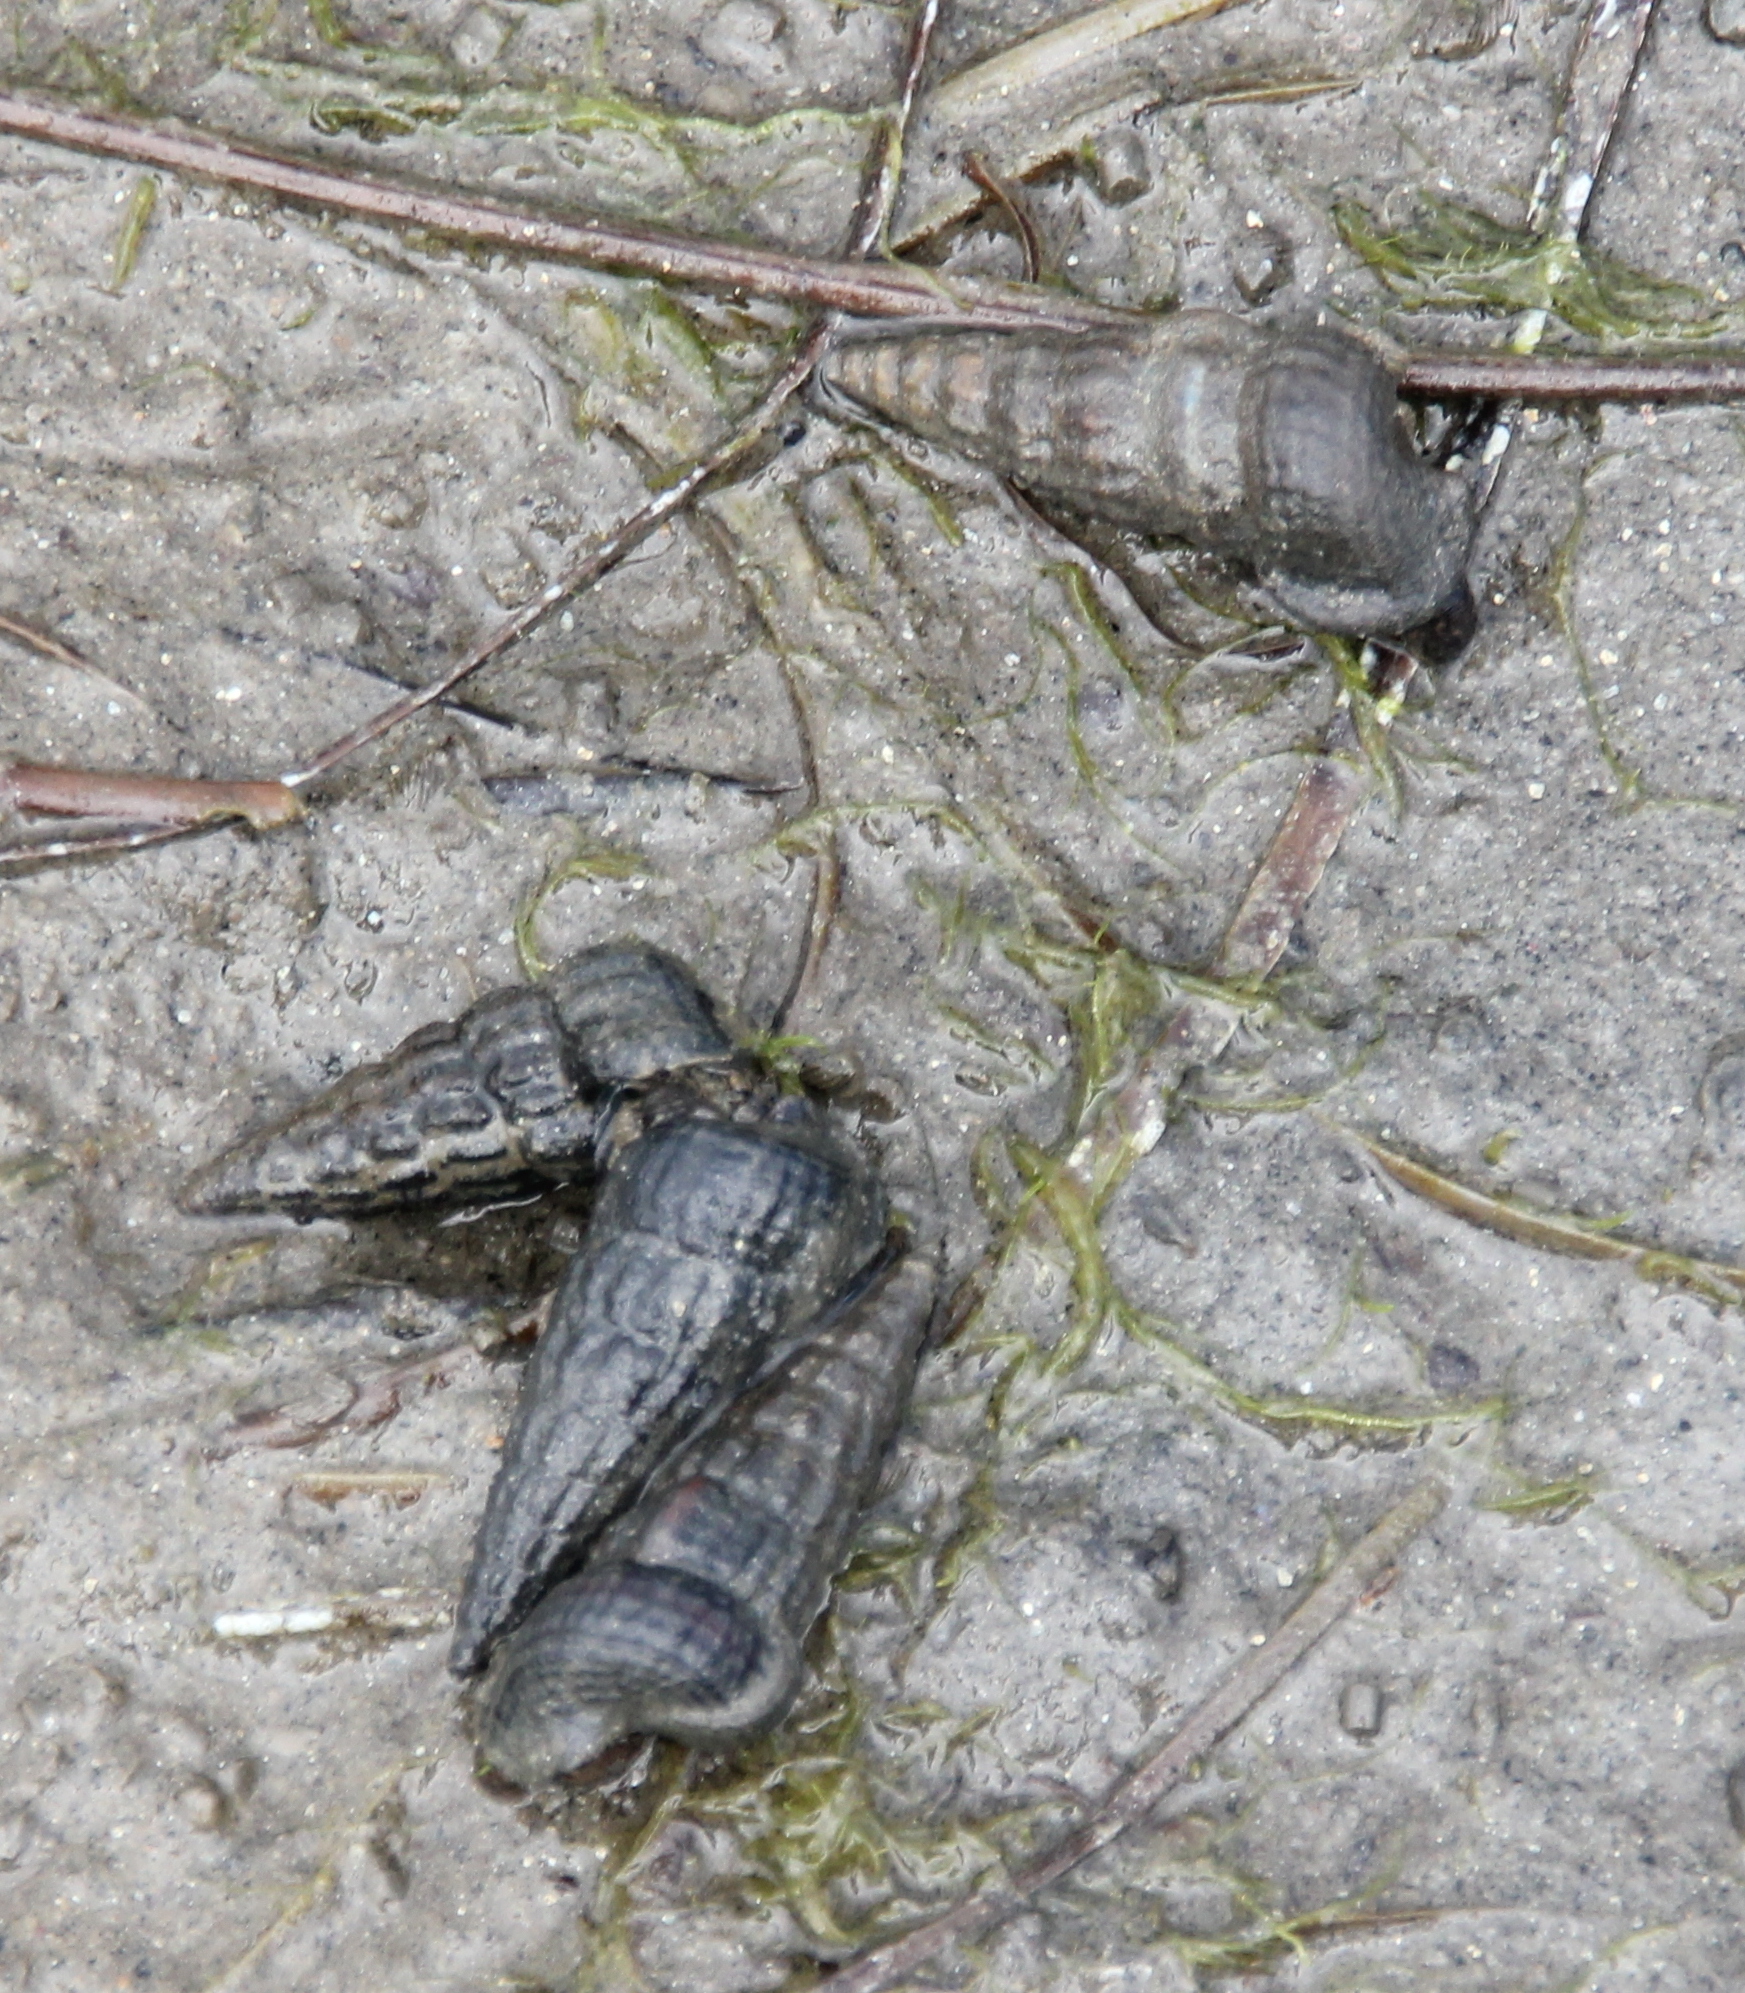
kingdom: Animalia
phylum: Mollusca
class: Gastropoda
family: Potamididae
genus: Cerithideopsis
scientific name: Cerithideopsis californica
